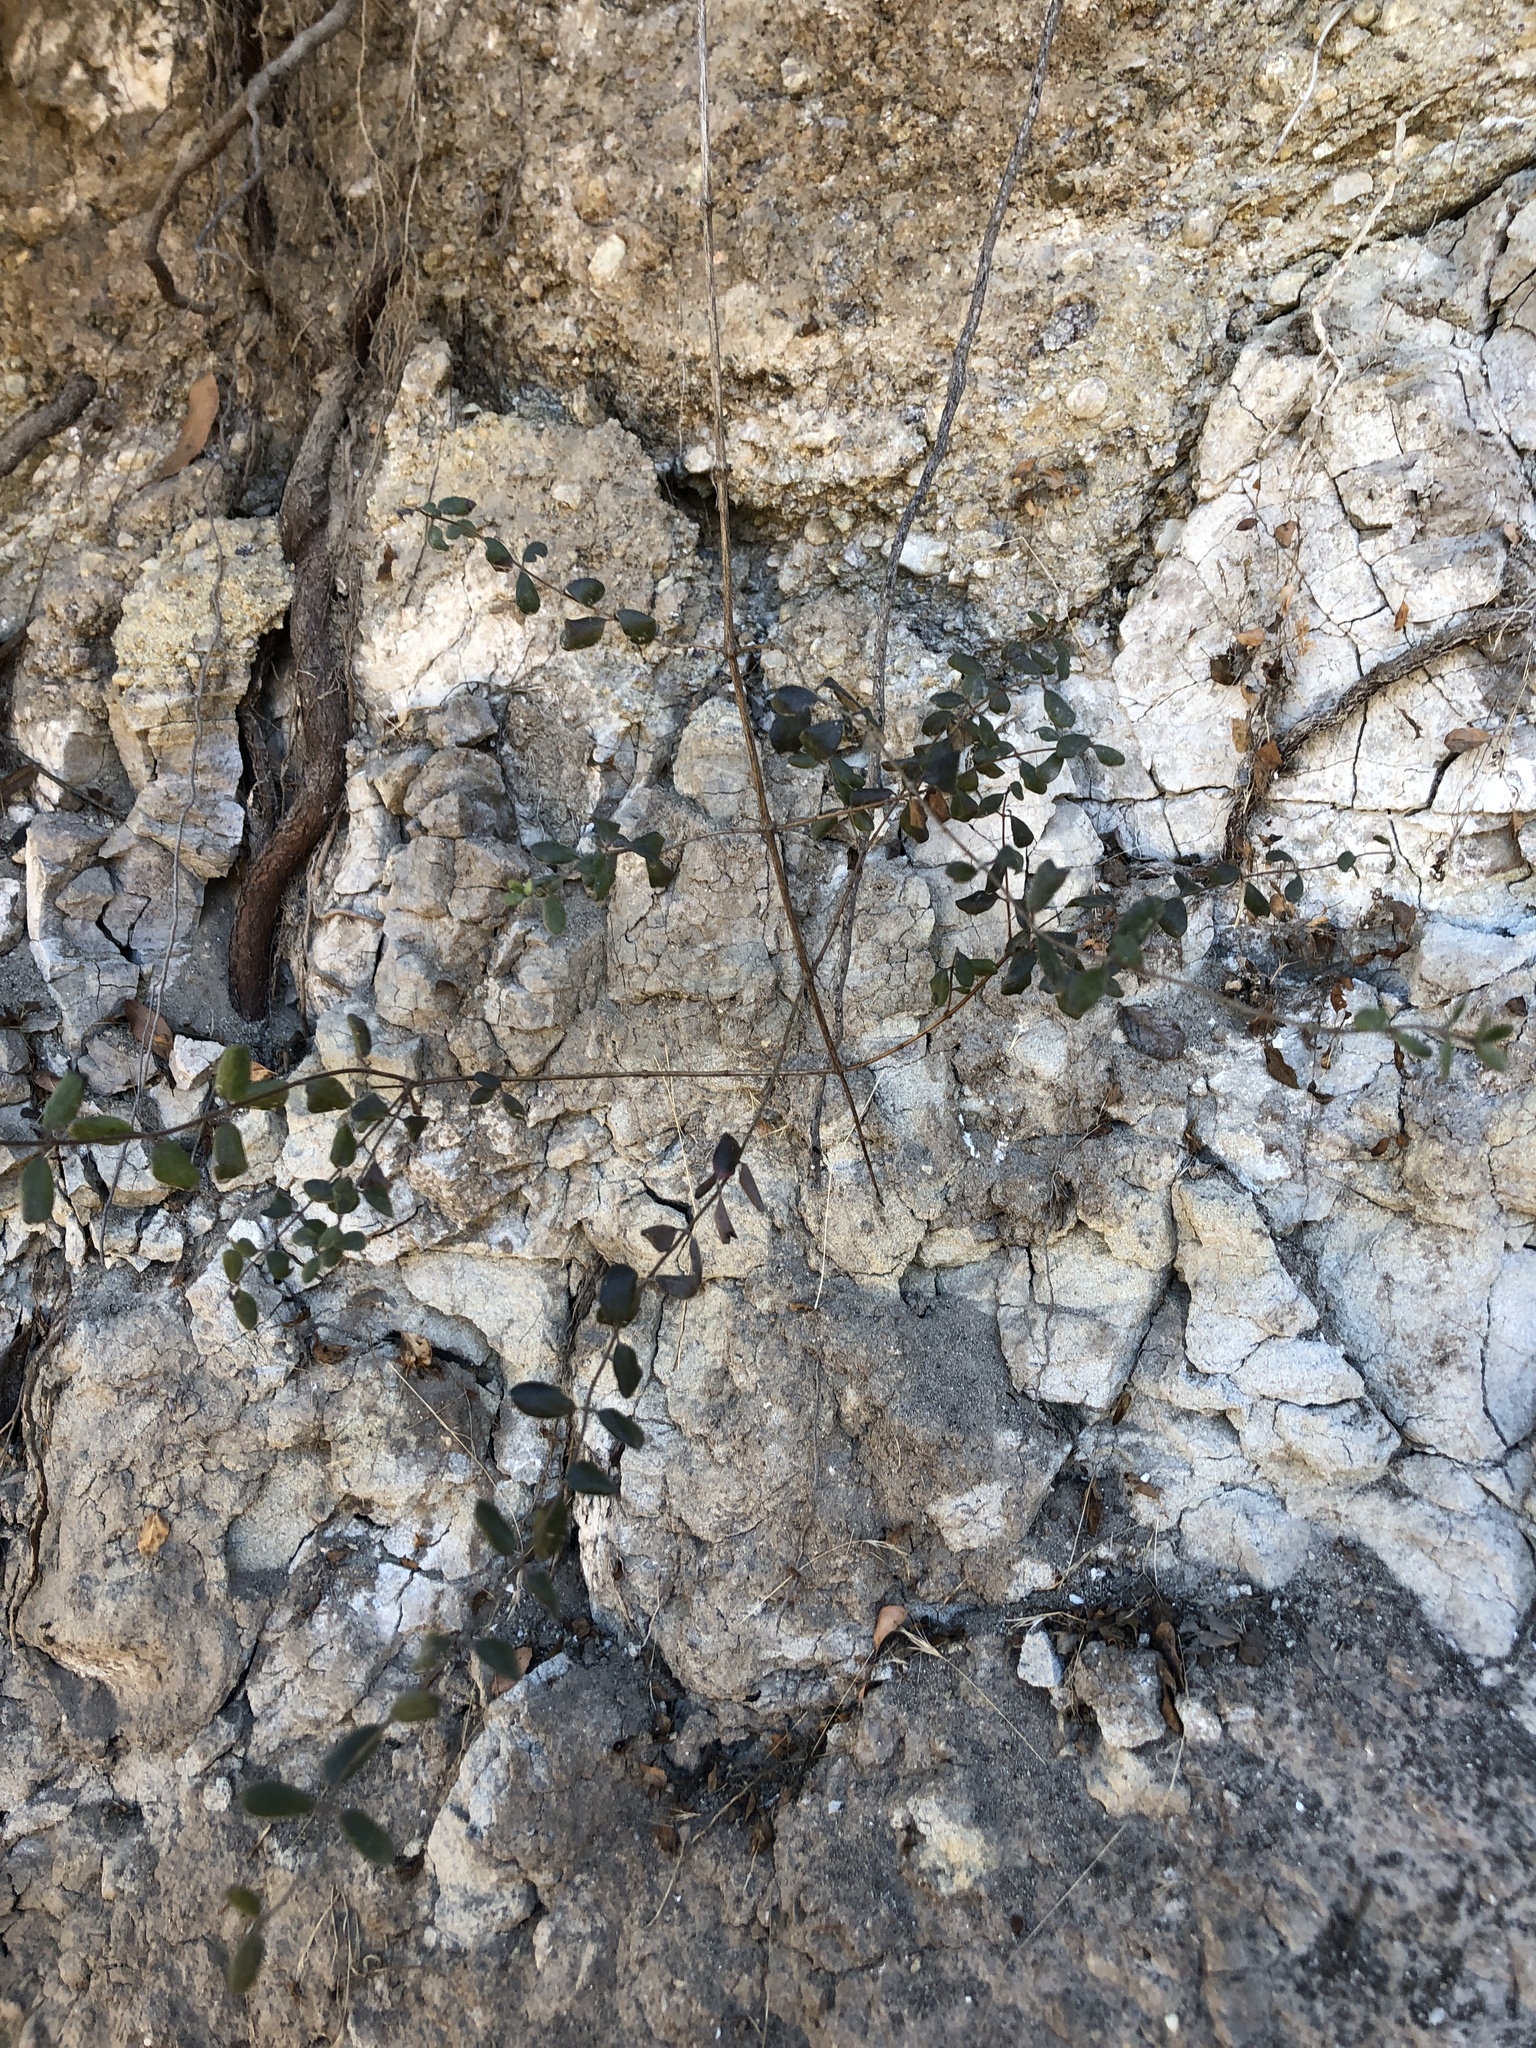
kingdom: Plantae
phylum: Tracheophyta
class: Magnoliopsida
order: Dipsacales
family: Caprifoliaceae
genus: Lonicera
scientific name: Lonicera subspicata
